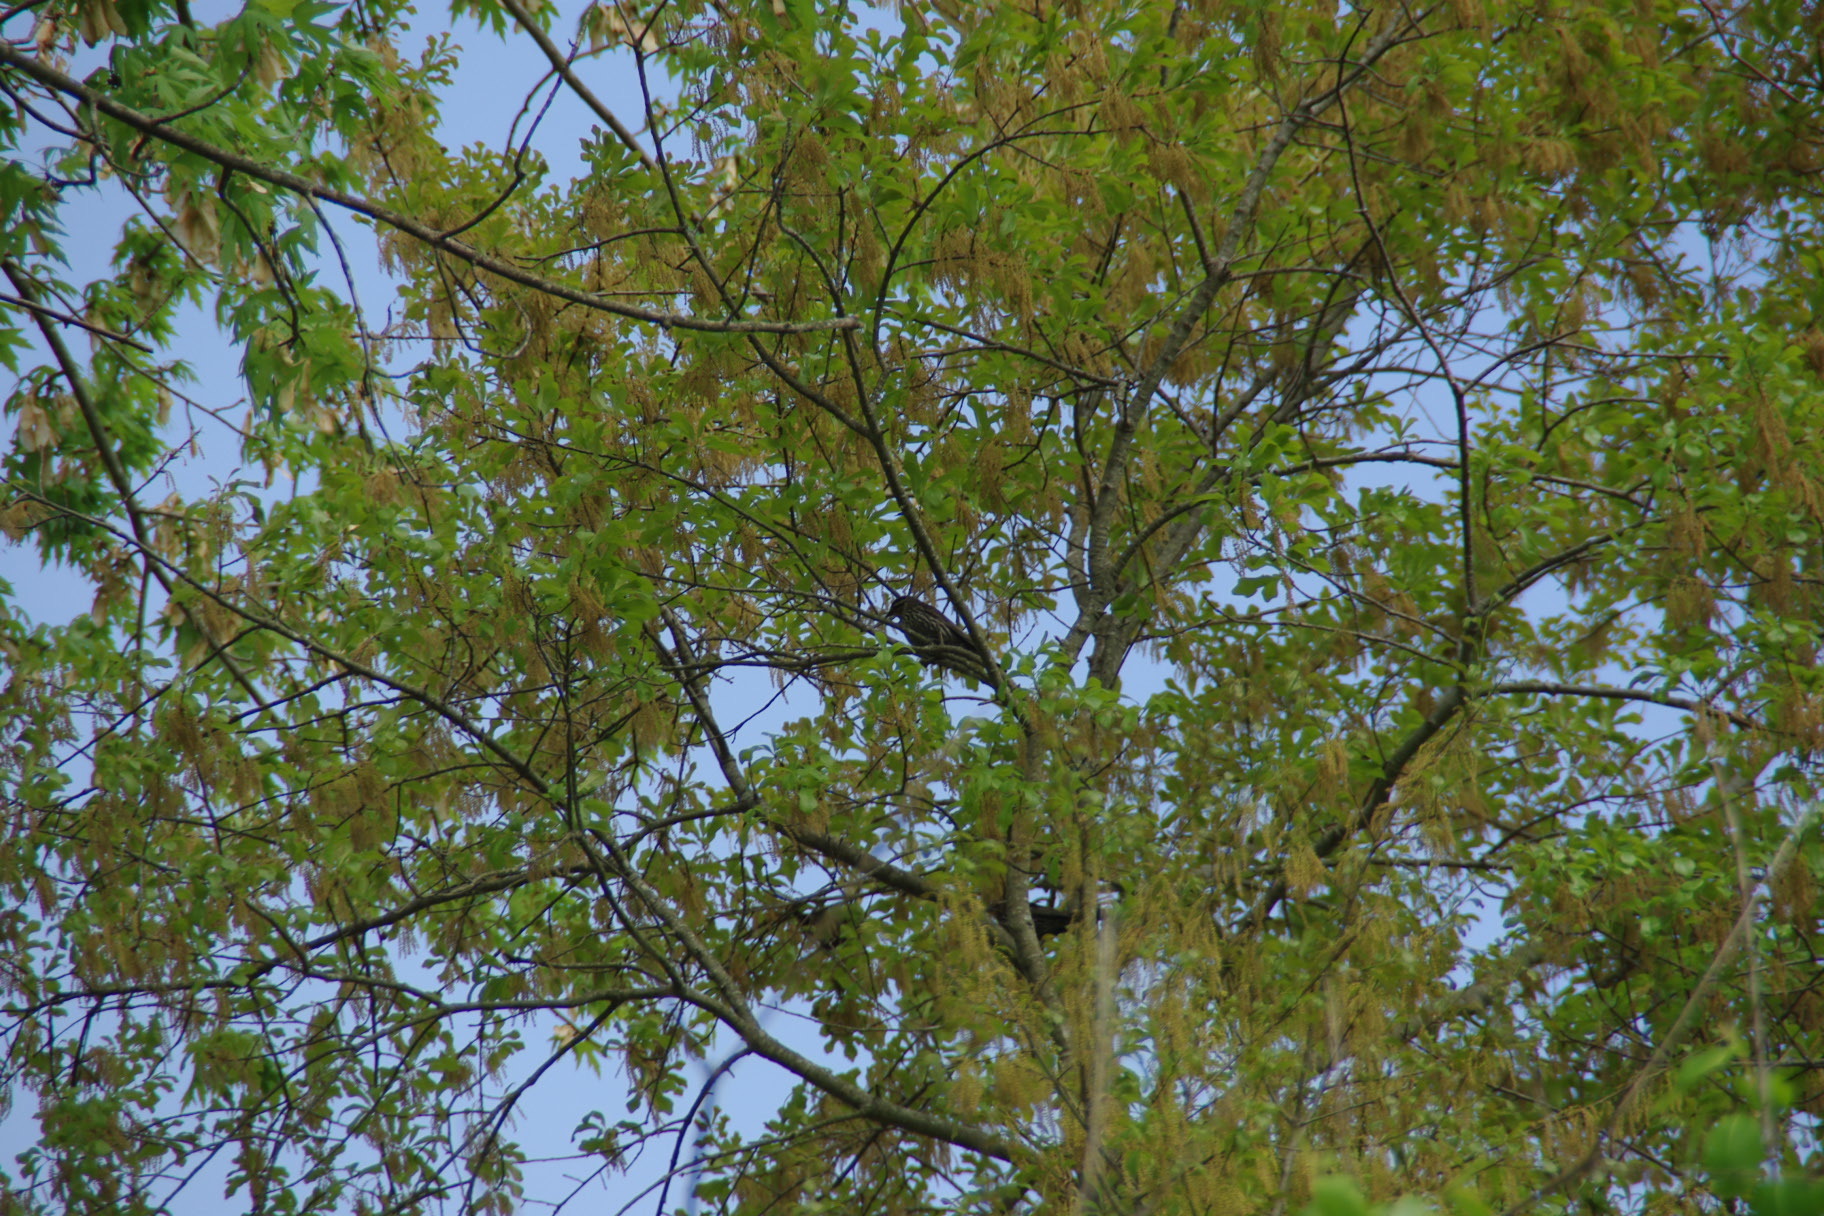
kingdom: Animalia
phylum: Chordata
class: Aves
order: Passeriformes
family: Icteridae
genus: Agelaius
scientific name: Agelaius phoeniceus
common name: Red-winged blackbird
